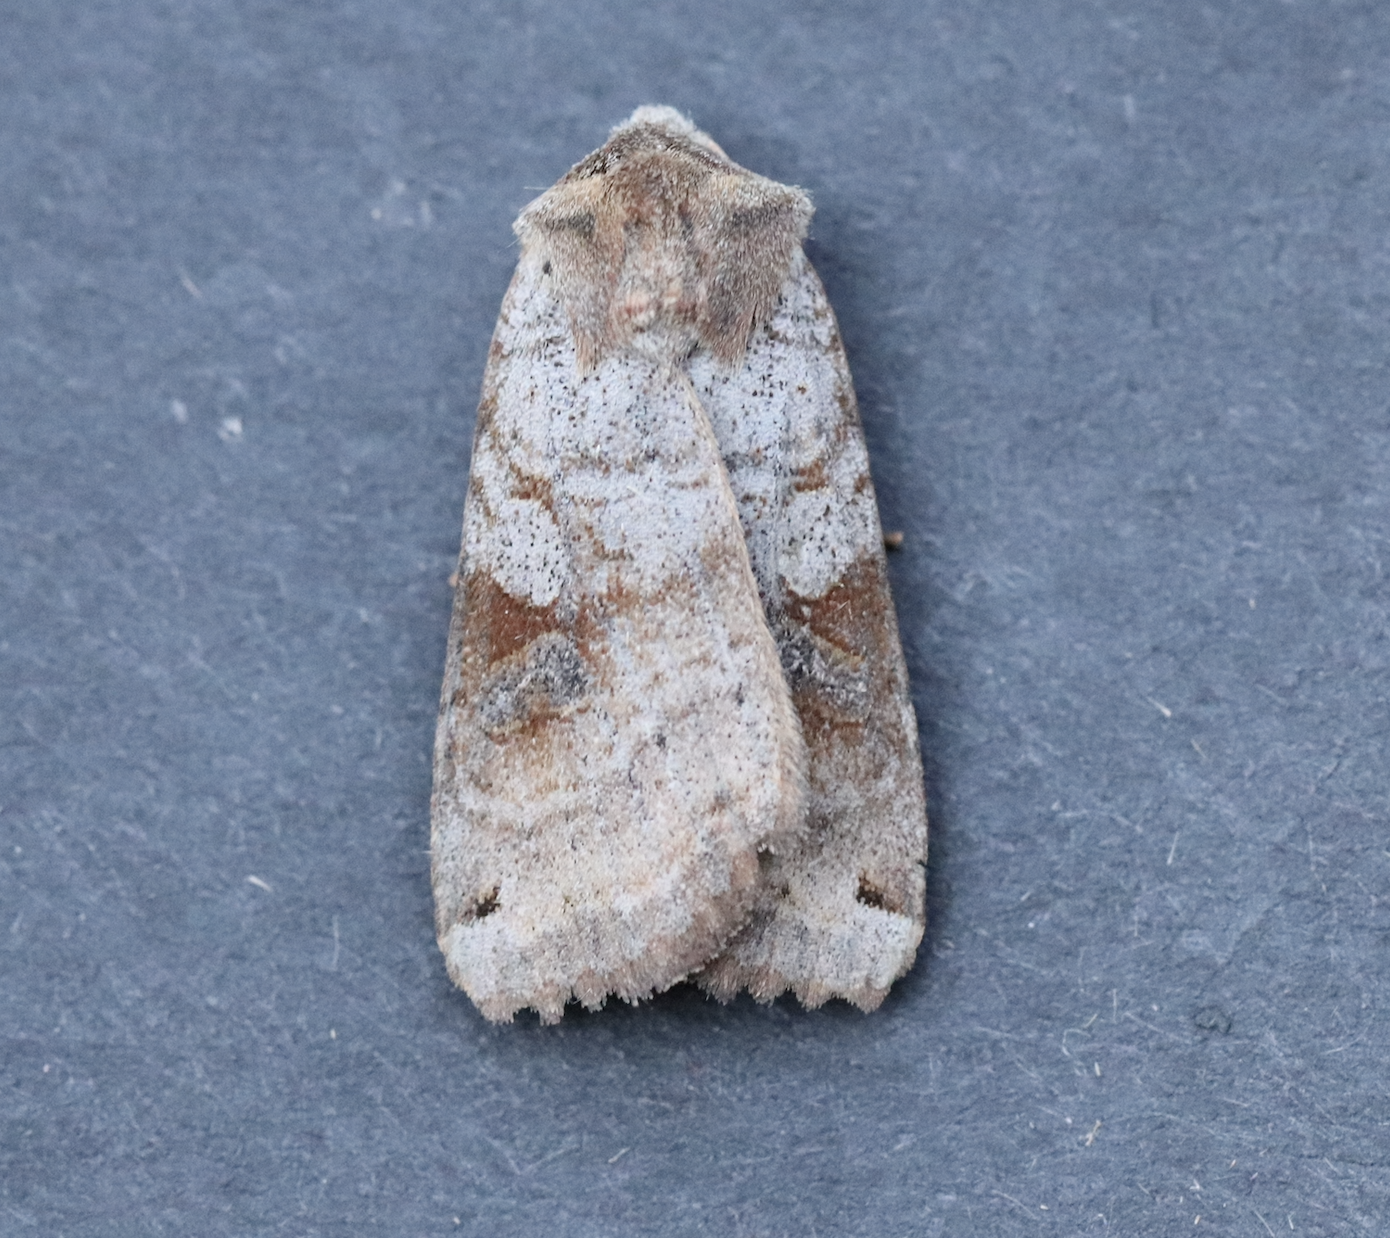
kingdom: Animalia
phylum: Arthropoda
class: Insecta
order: Lepidoptera
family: Noctuidae
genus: Xestia
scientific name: Xestia smithii
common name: Smith's dart
